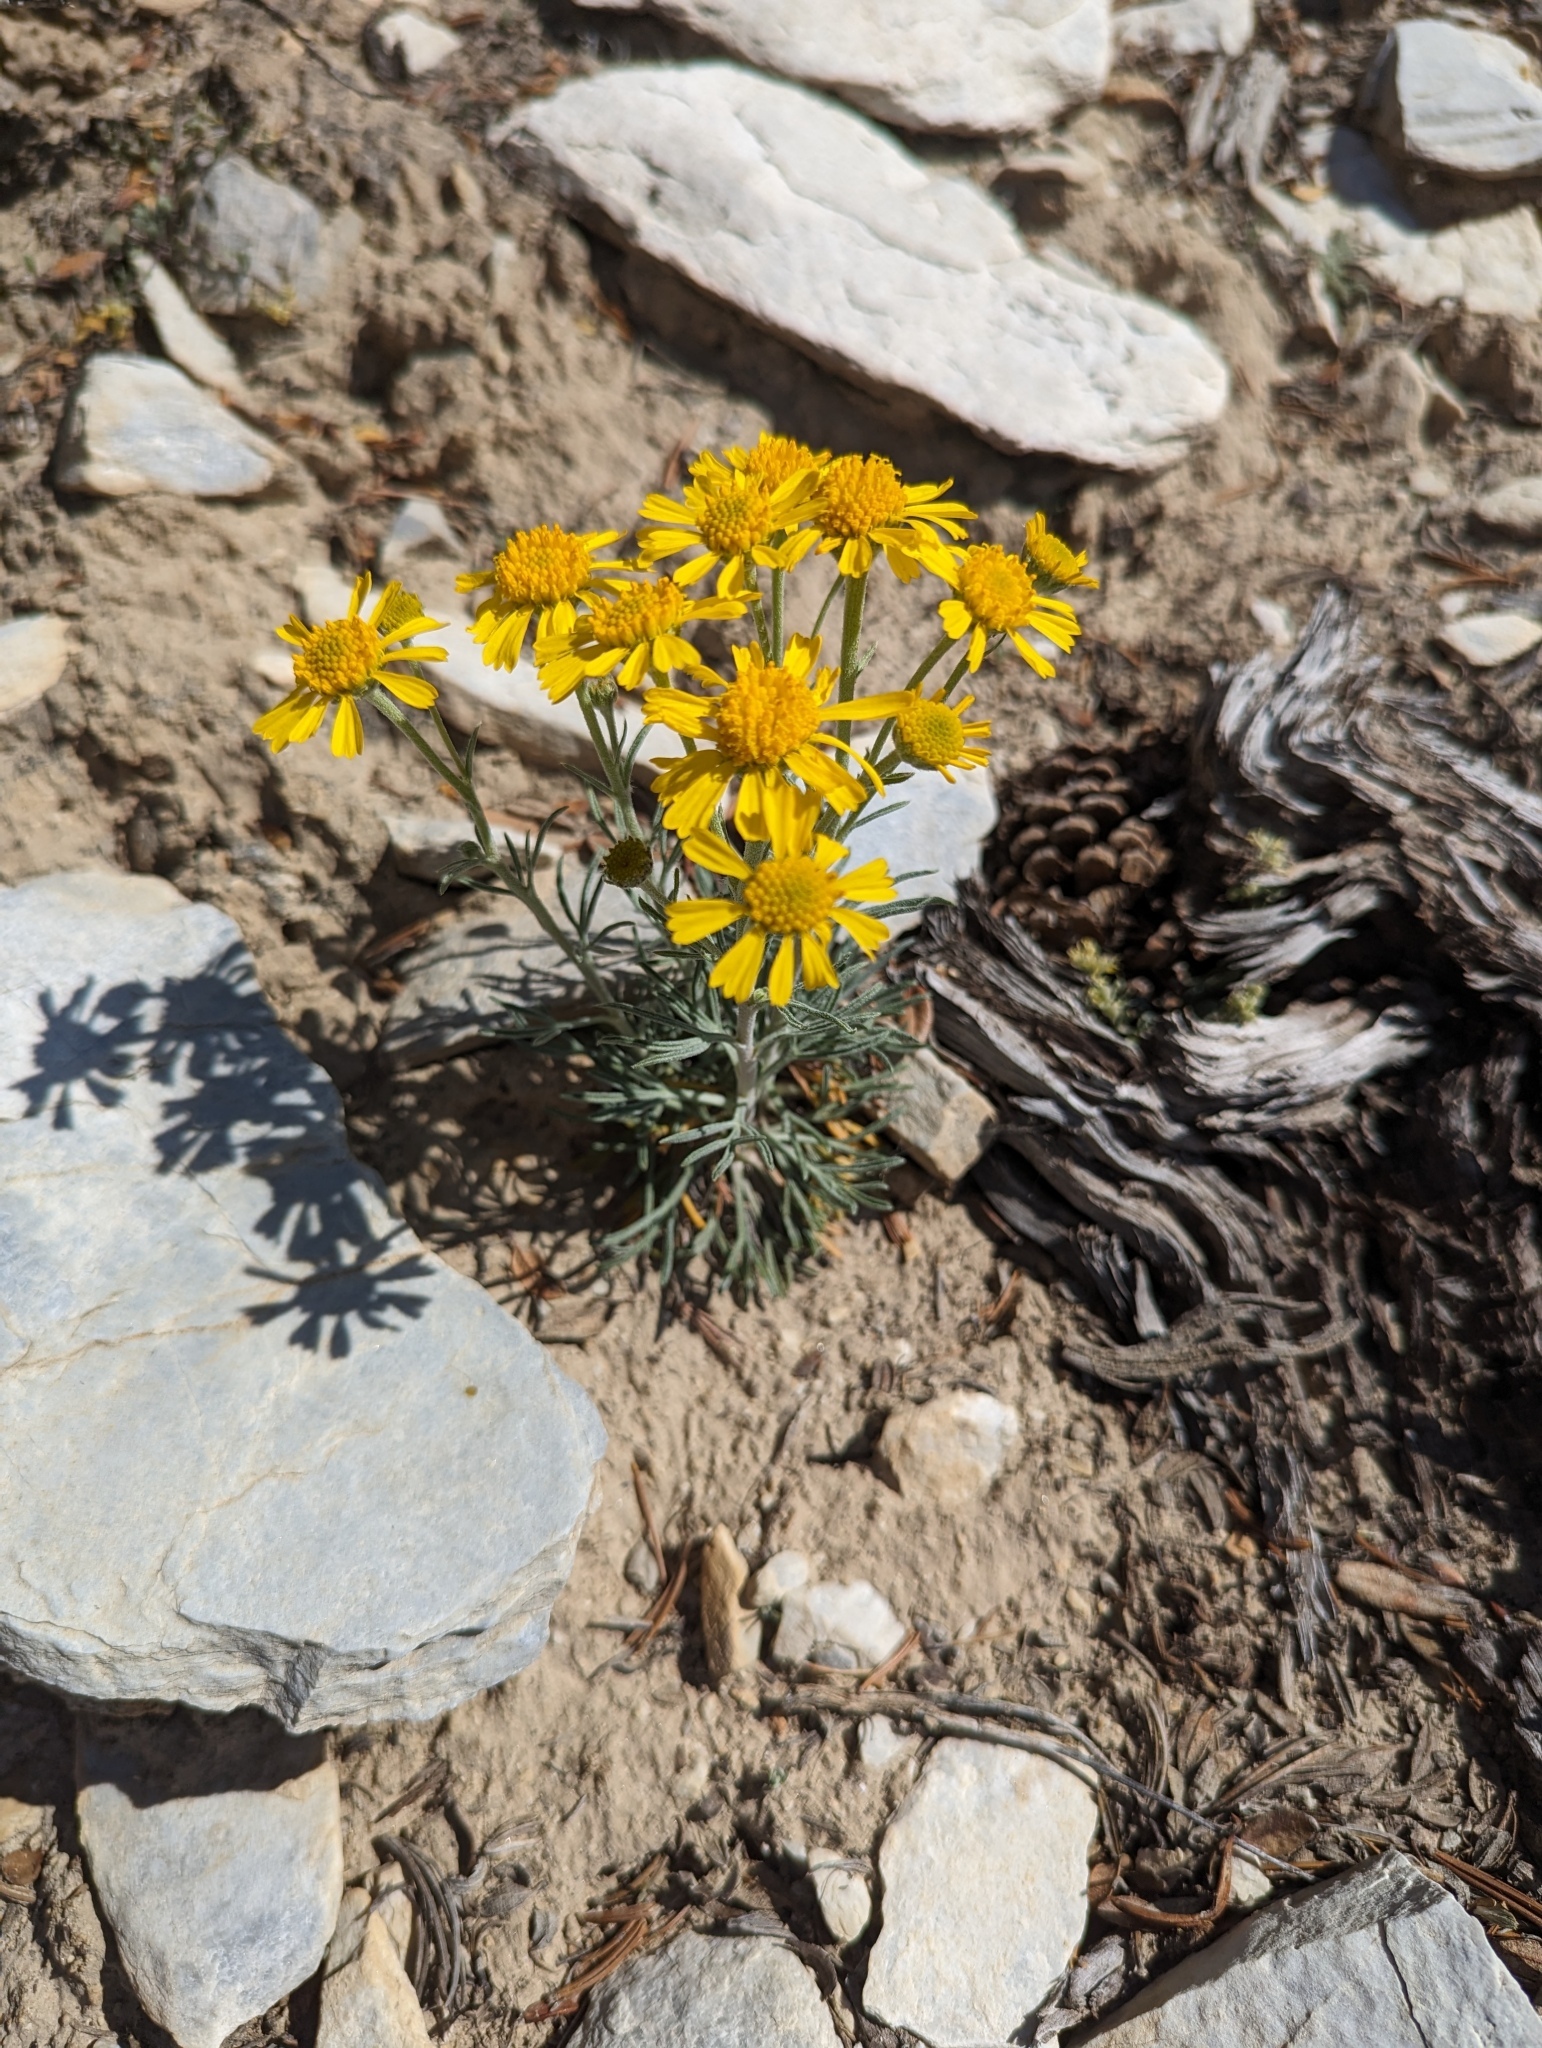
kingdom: Plantae
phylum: Tracheophyta
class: Magnoliopsida
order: Asterales
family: Asteraceae
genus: Hymenoxys
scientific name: Hymenoxys cooperi
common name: Cooper's bitterweed
